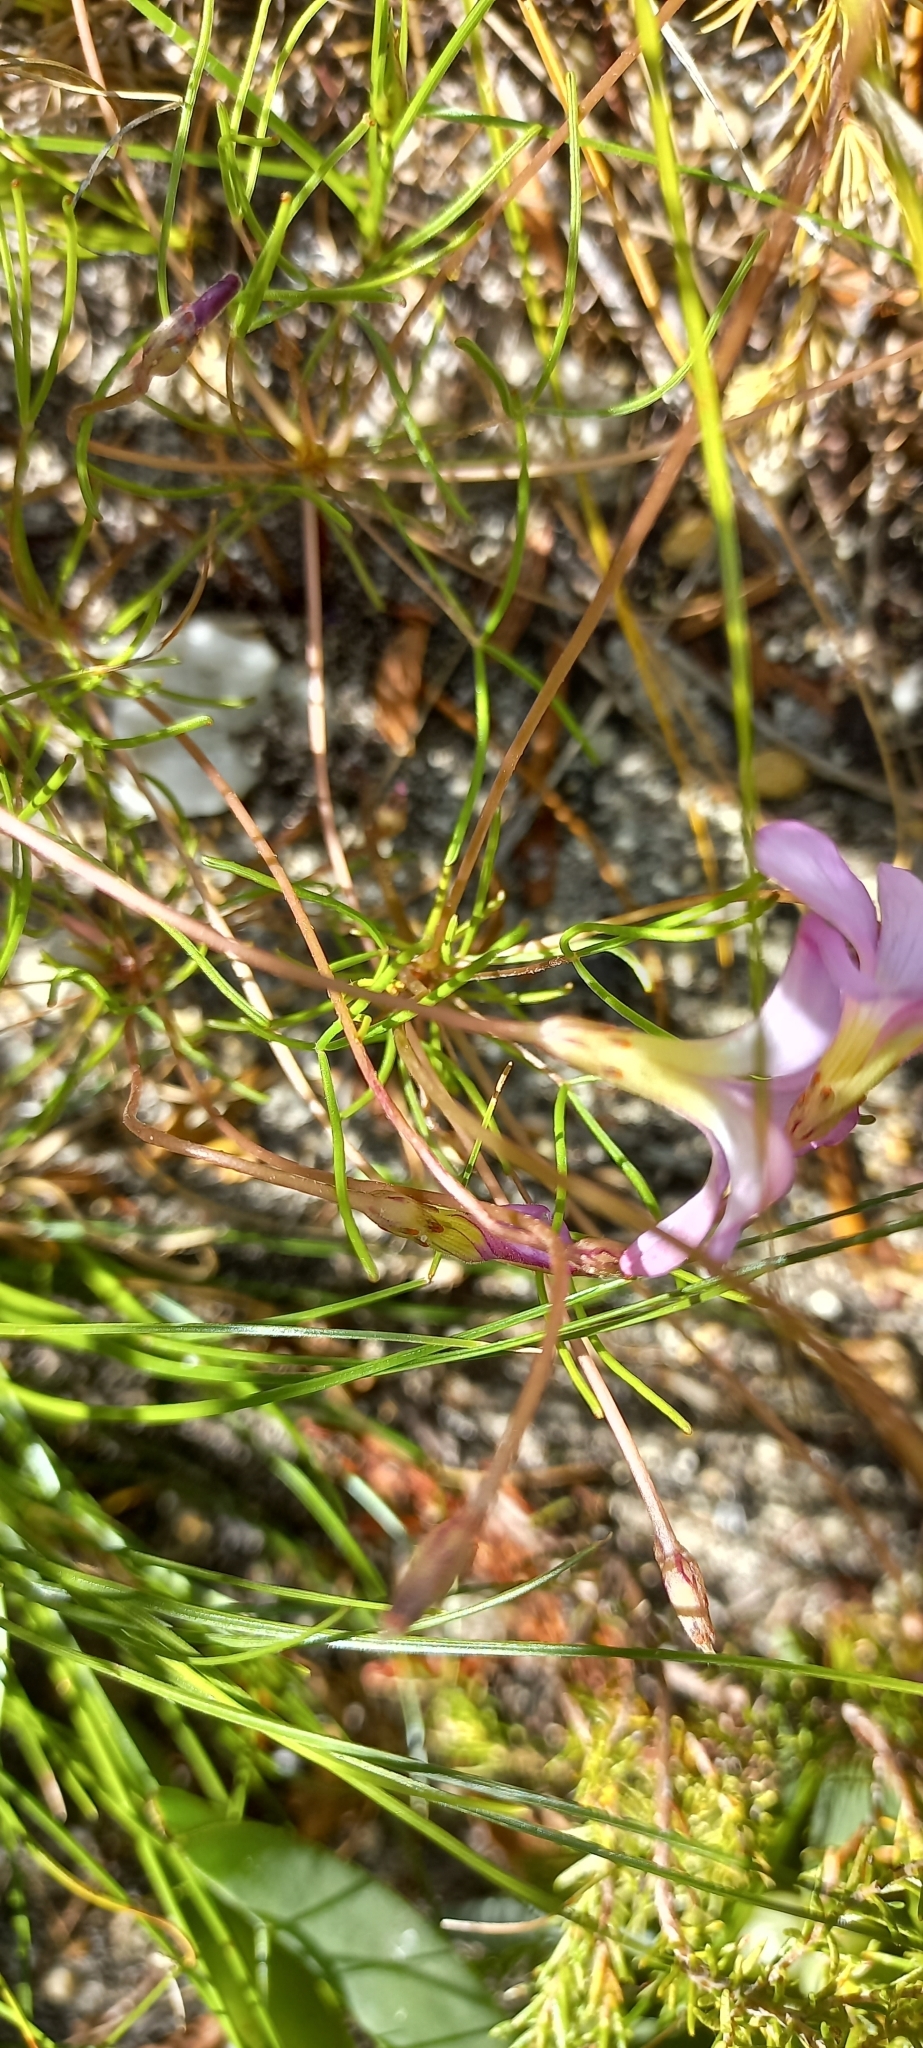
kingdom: Plantae
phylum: Tracheophyta
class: Magnoliopsida
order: Oxalidales
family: Oxalidaceae
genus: Oxalis
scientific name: Oxalis polyphylla
